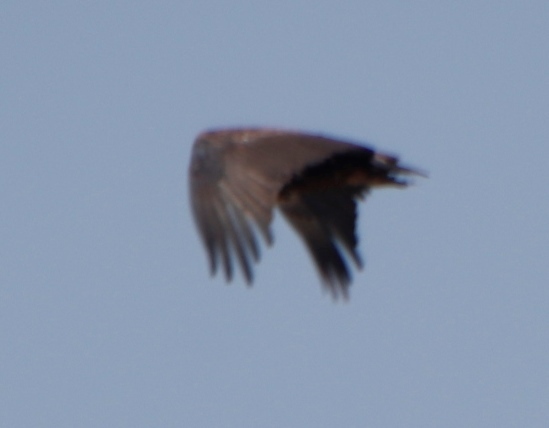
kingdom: Animalia
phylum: Chordata
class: Aves
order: Accipitriformes
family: Accipitridae
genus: Terathopius
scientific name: Terathopius ecaudatus
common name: Bateleur
